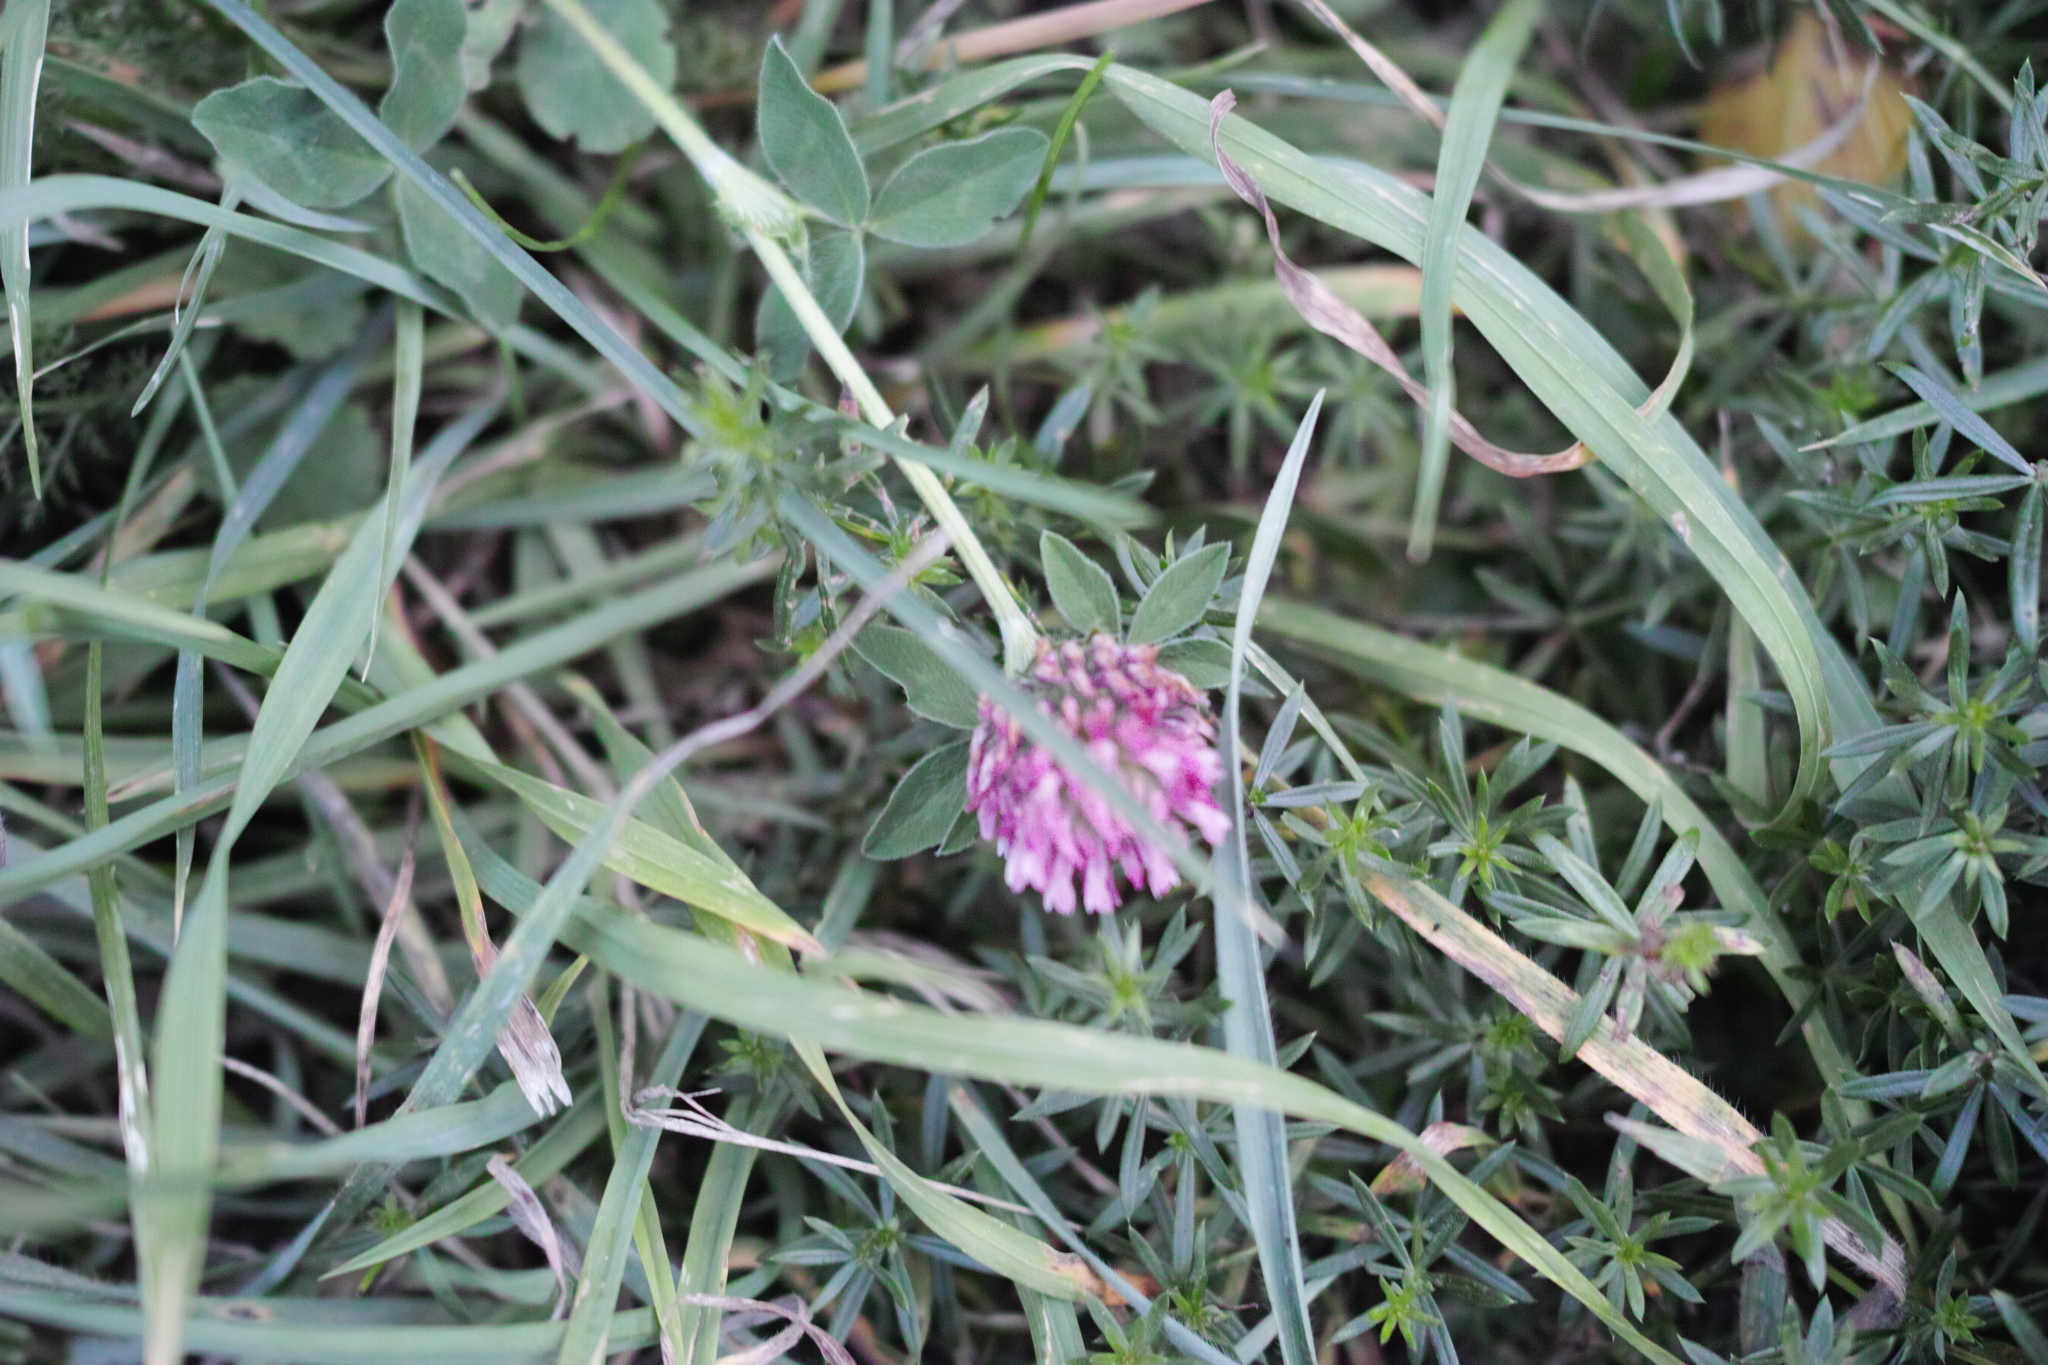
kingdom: Plantae
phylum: Tracheophyta
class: Magnoliopsida
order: Fabales
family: Fabaceae
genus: Trifolium
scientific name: Trifolium pratense
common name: Red clover
